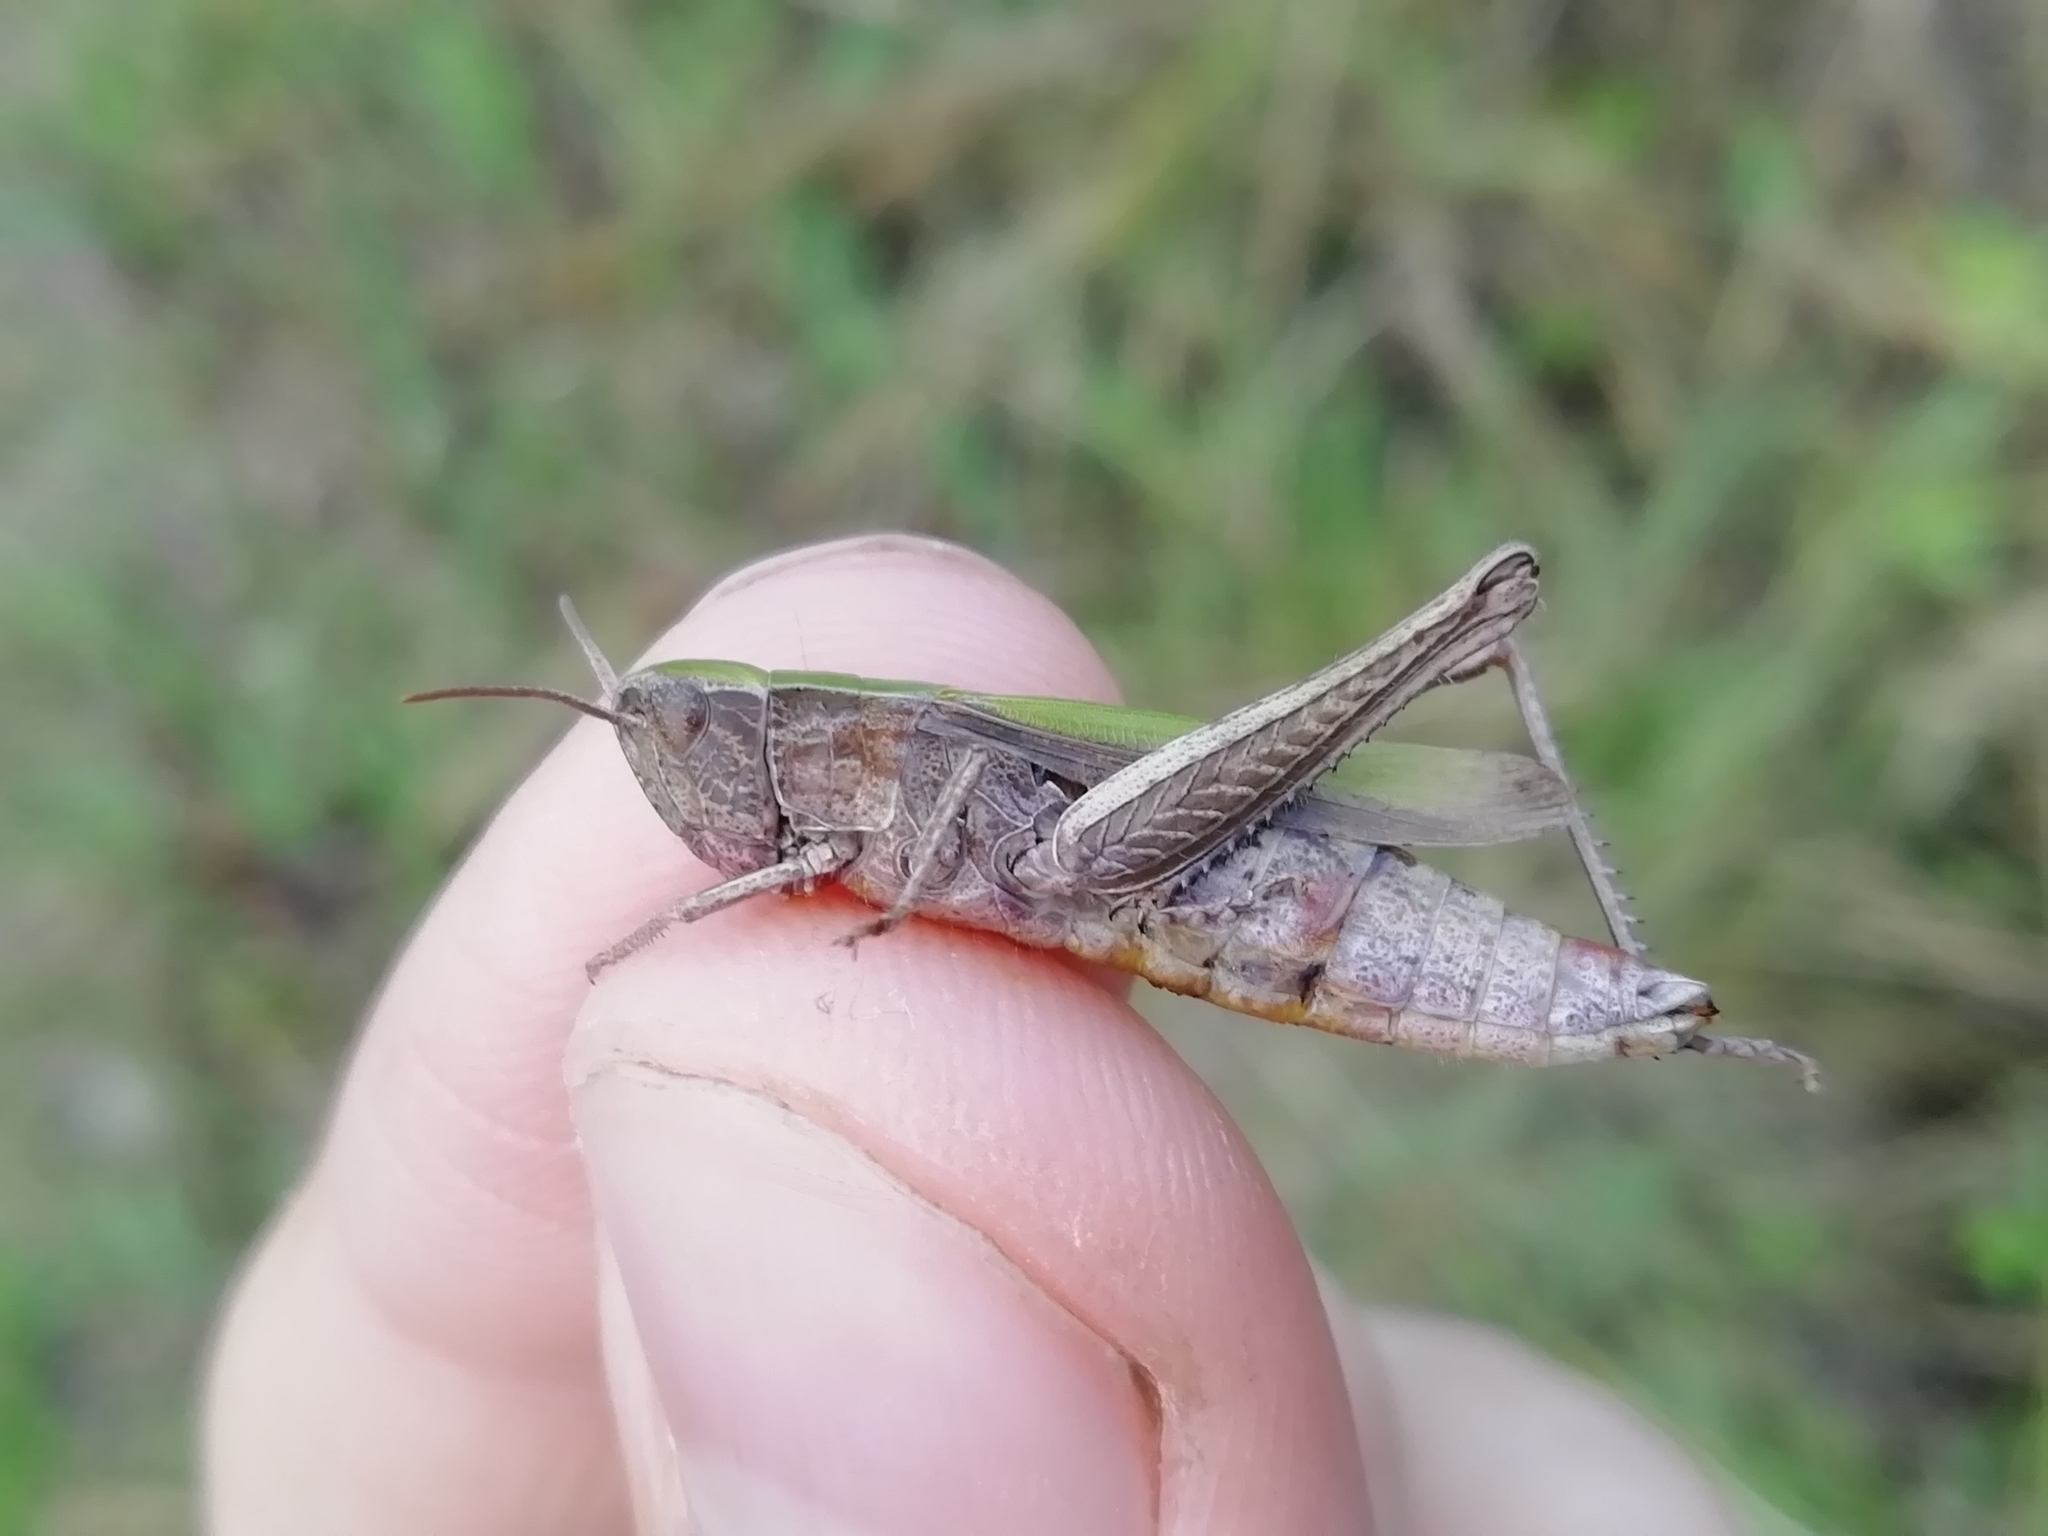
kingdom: Animalia
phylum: Arthropoda
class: Insecta
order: Orthoptera
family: Acrididae
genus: Chorthippus
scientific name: Chorthippus dorsatus
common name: Steppe grasshopper
